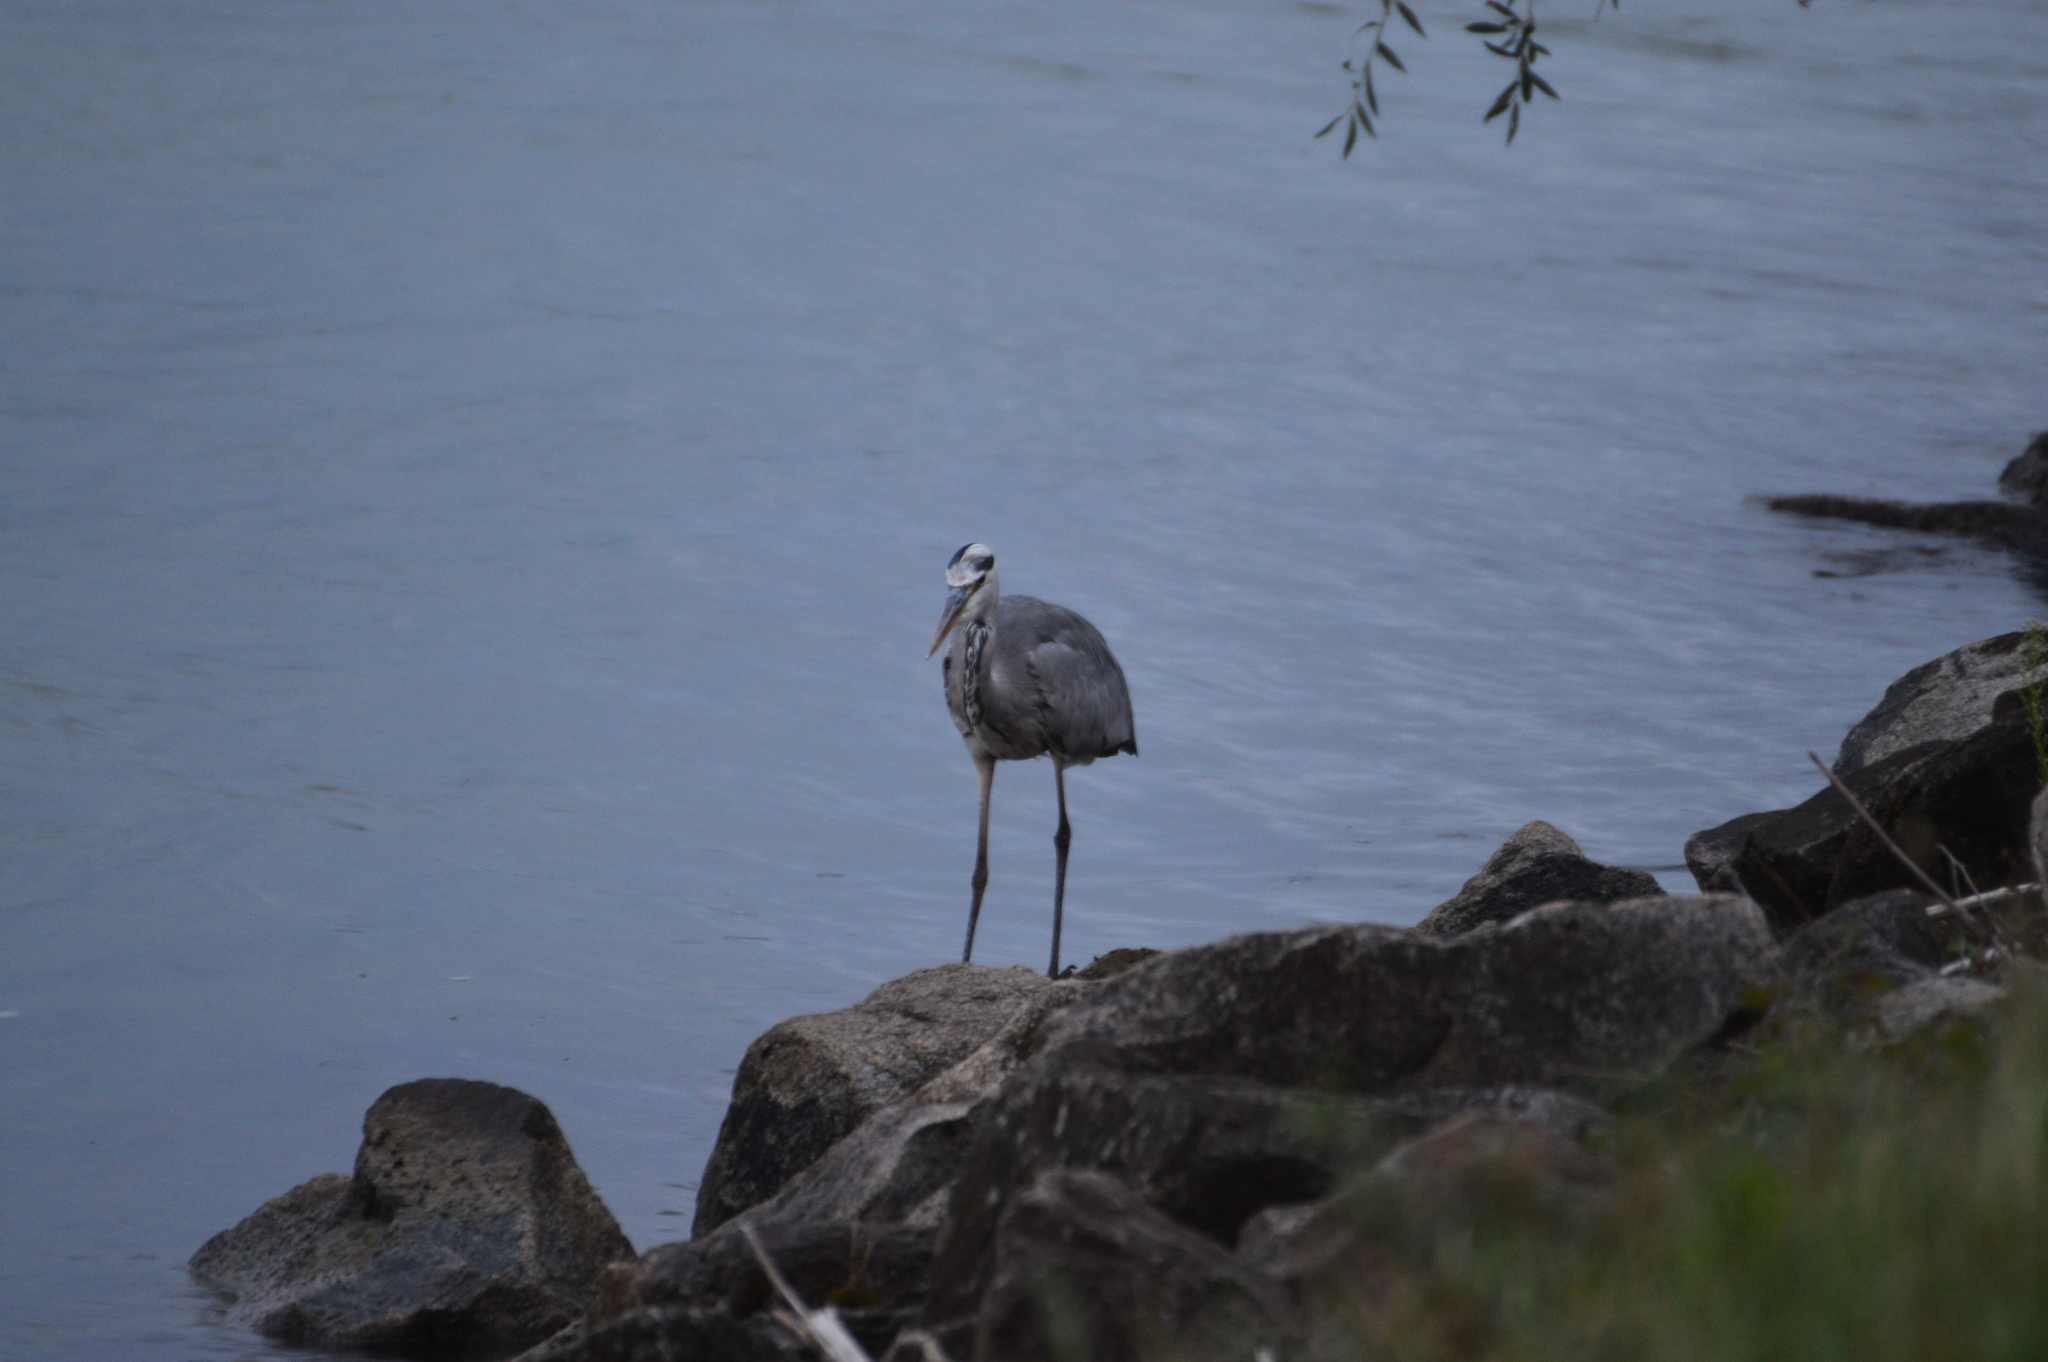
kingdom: Animalia
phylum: Chordata
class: Aves
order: Pelecaniformes
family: Ardeidae
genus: Ardea
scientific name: Ardea cinerea
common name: Grey heron
